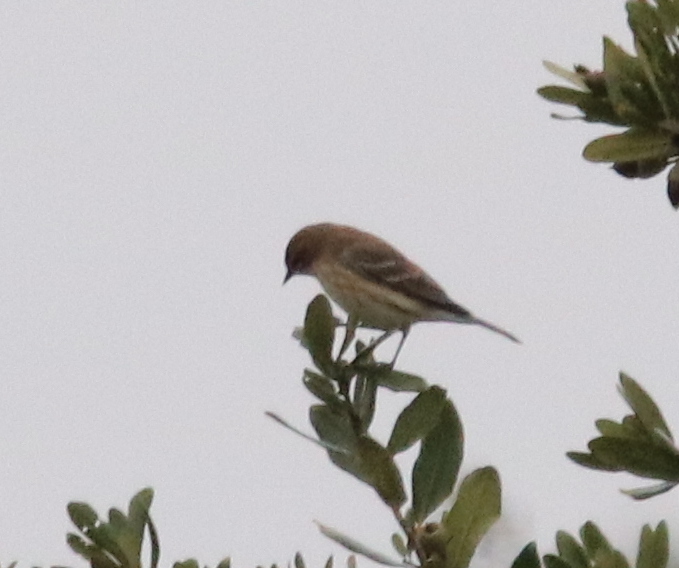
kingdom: Animalia
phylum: Chordata
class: Aves
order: Passeriformes
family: Parulidae
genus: Setophaga
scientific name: Setophaga coronata
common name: Myrtle warbler
